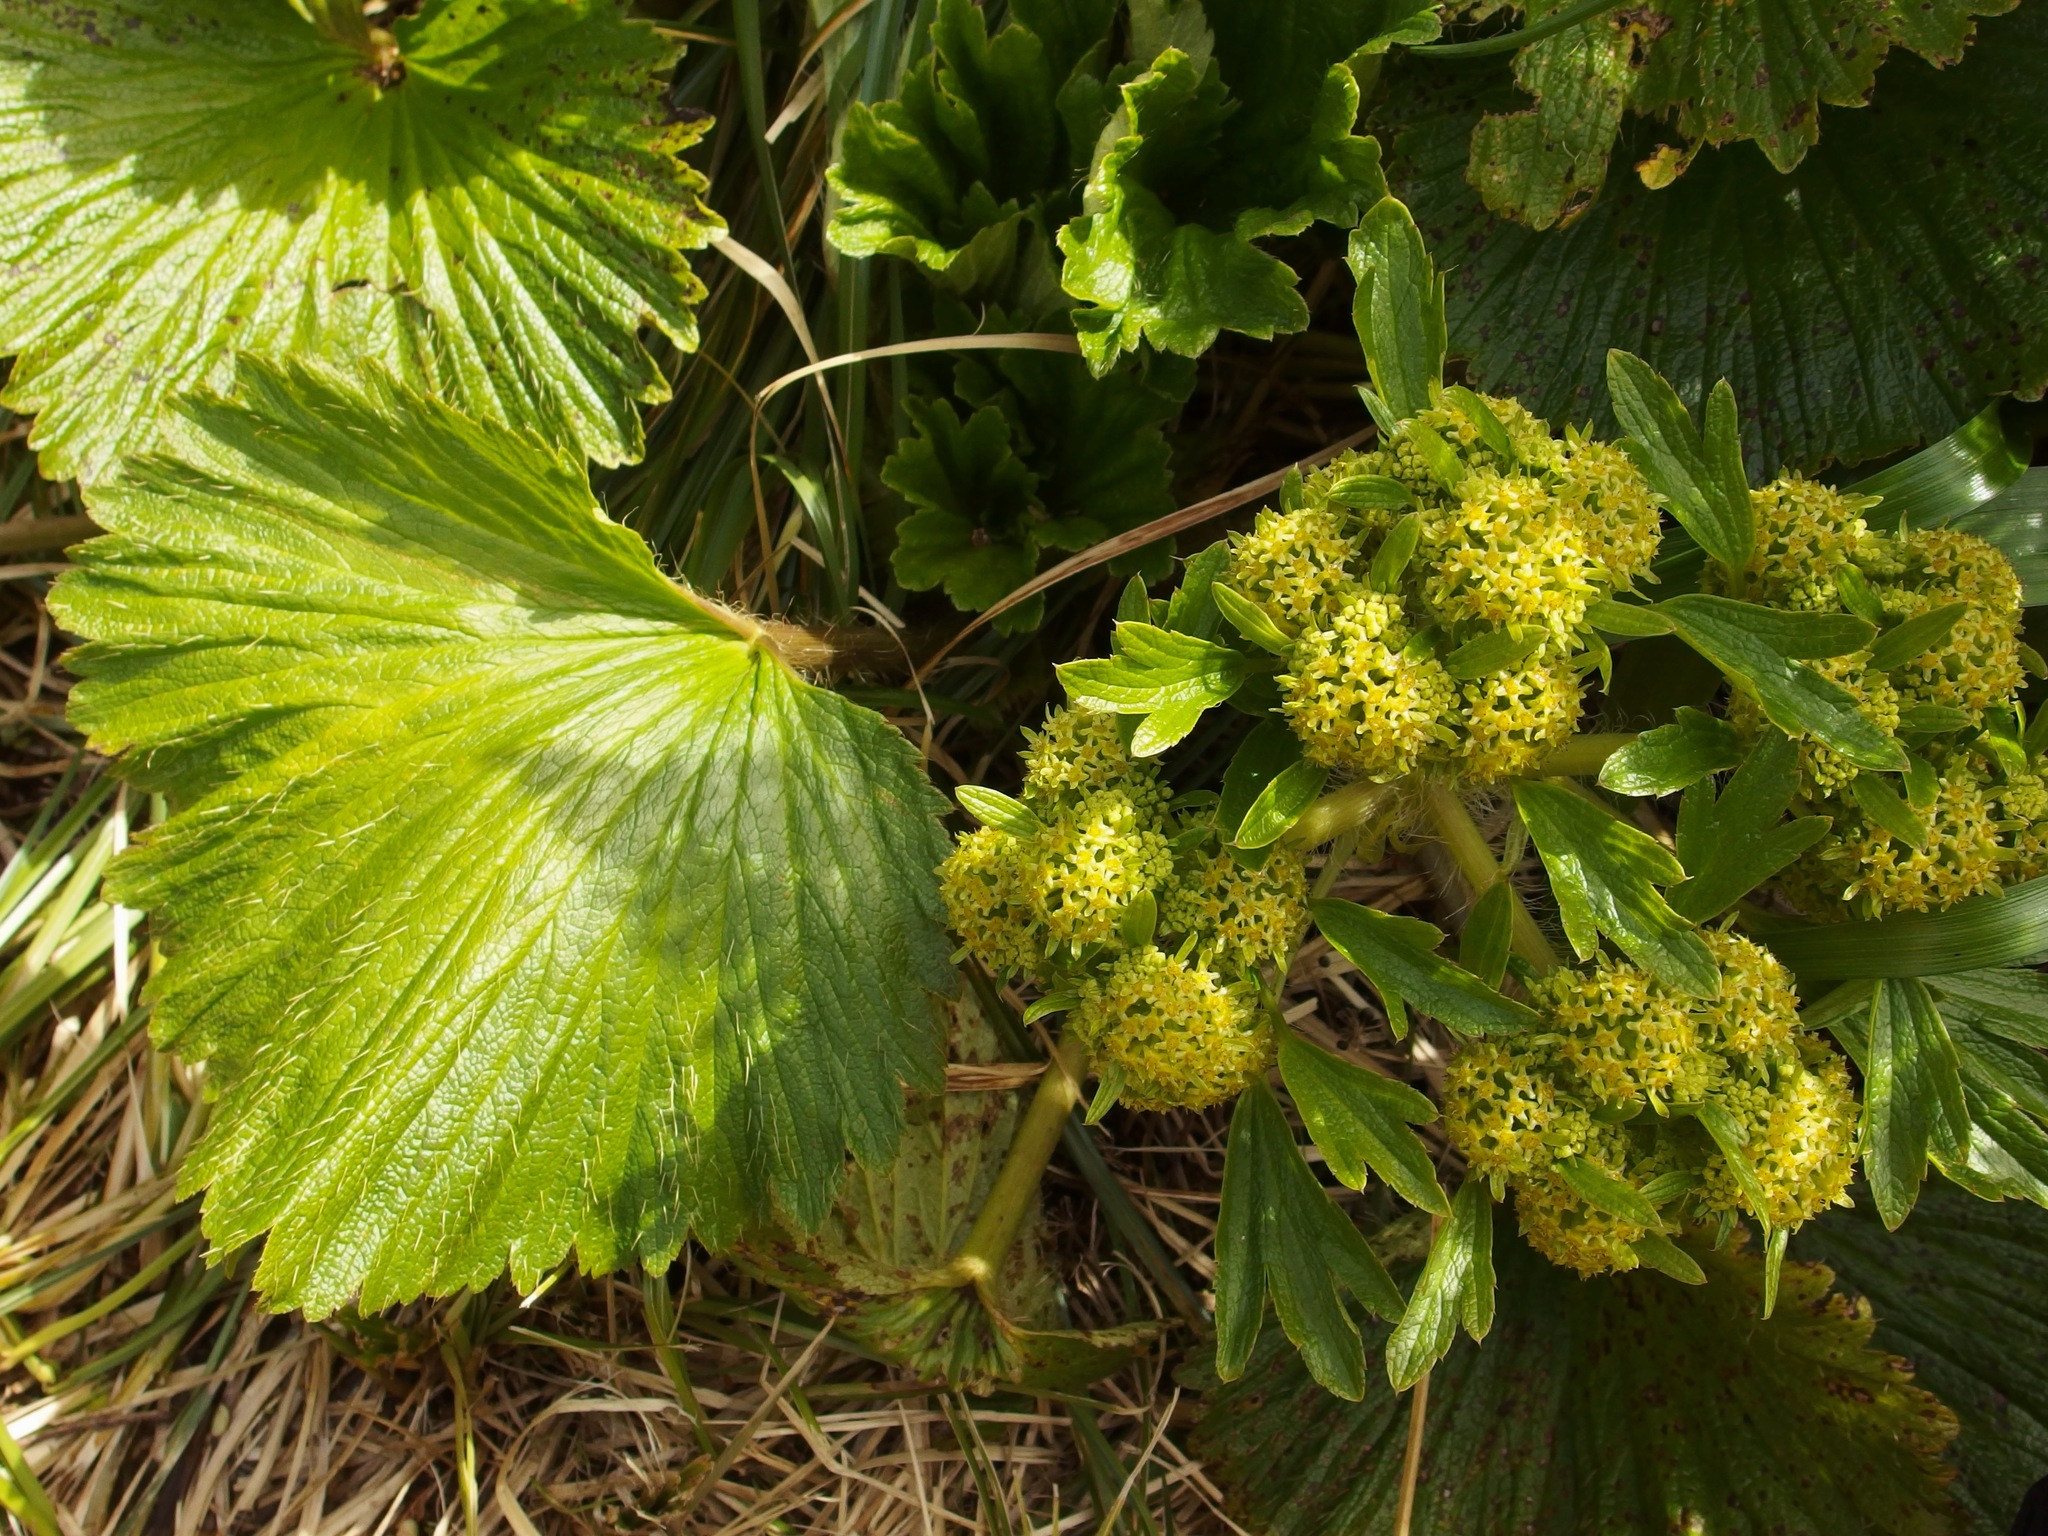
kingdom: Plantae
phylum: Tracheophyta
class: Magnoliopsida
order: Apiales
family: Apiaceae
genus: Azorella
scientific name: Azorella polaris
